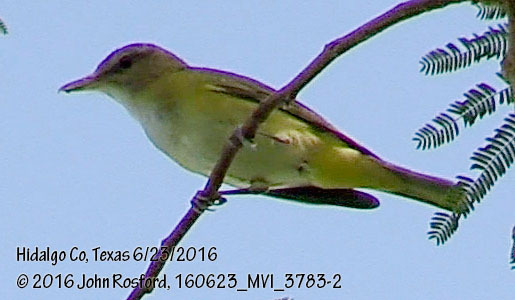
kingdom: Animalia
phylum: Chordata
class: Aves
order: Passeriformes
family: Vireonidae
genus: Vireo
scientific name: Vireo flavoviridis
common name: Yellow-green vireo
